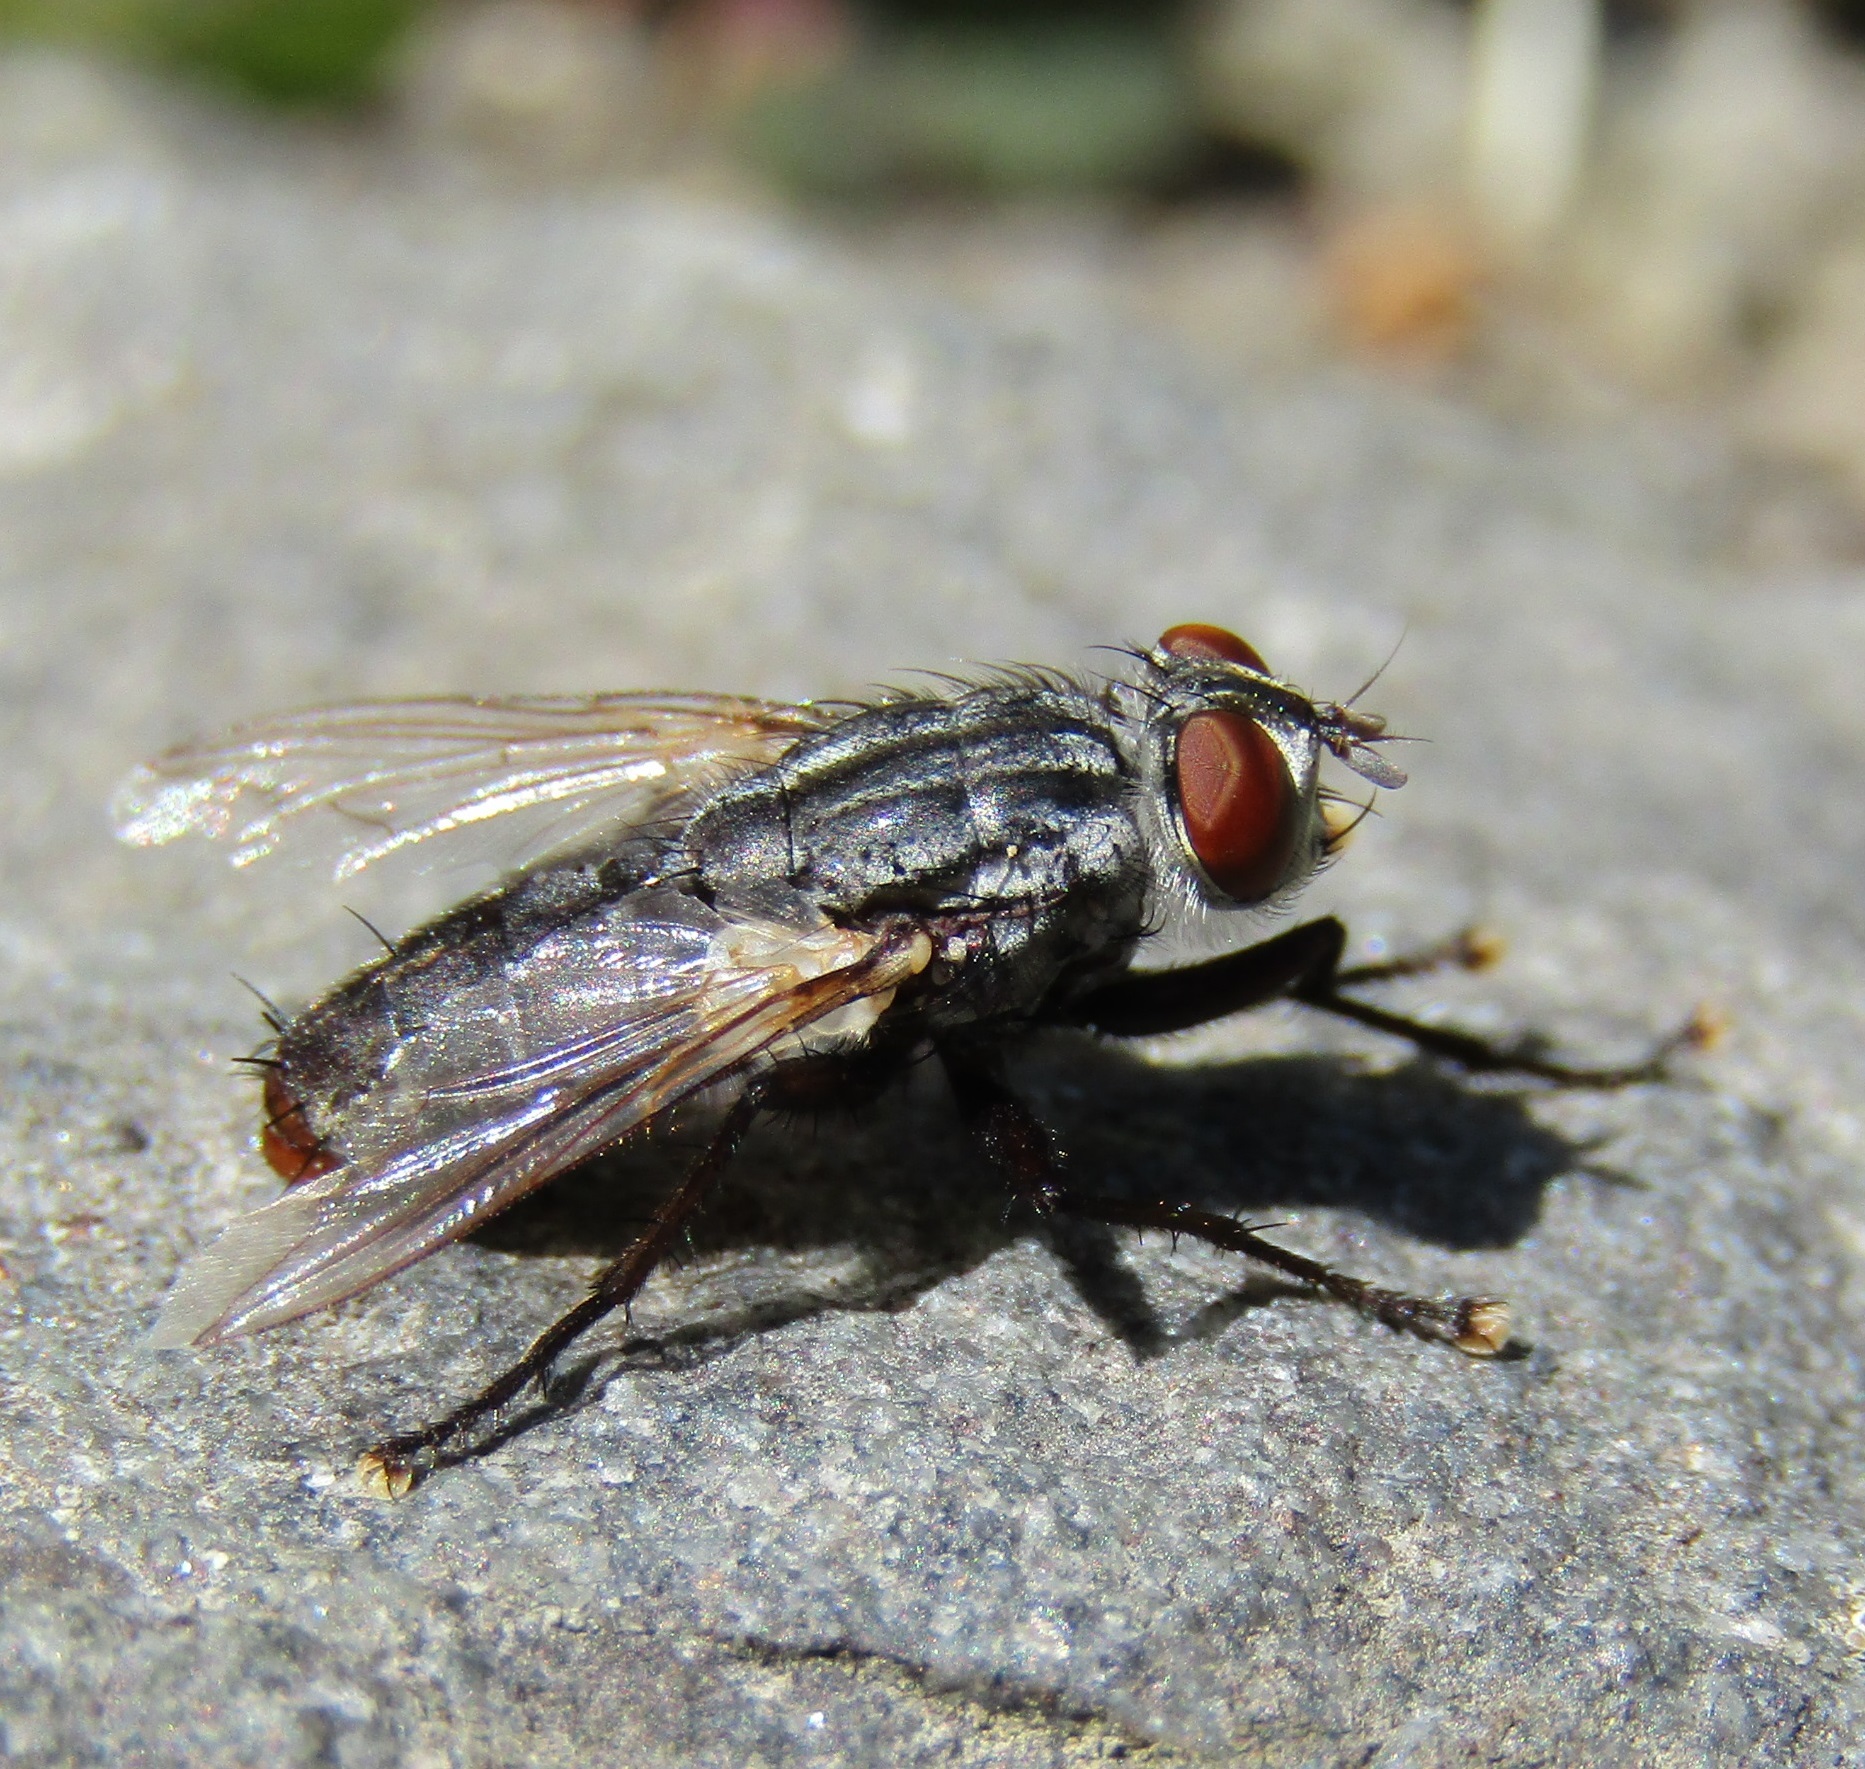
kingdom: Animalia
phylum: Arthropoda
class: Insecta
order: Diptera
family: Sarcophagidae
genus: Sarcophaga
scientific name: Sarcophaga crassipalpis
